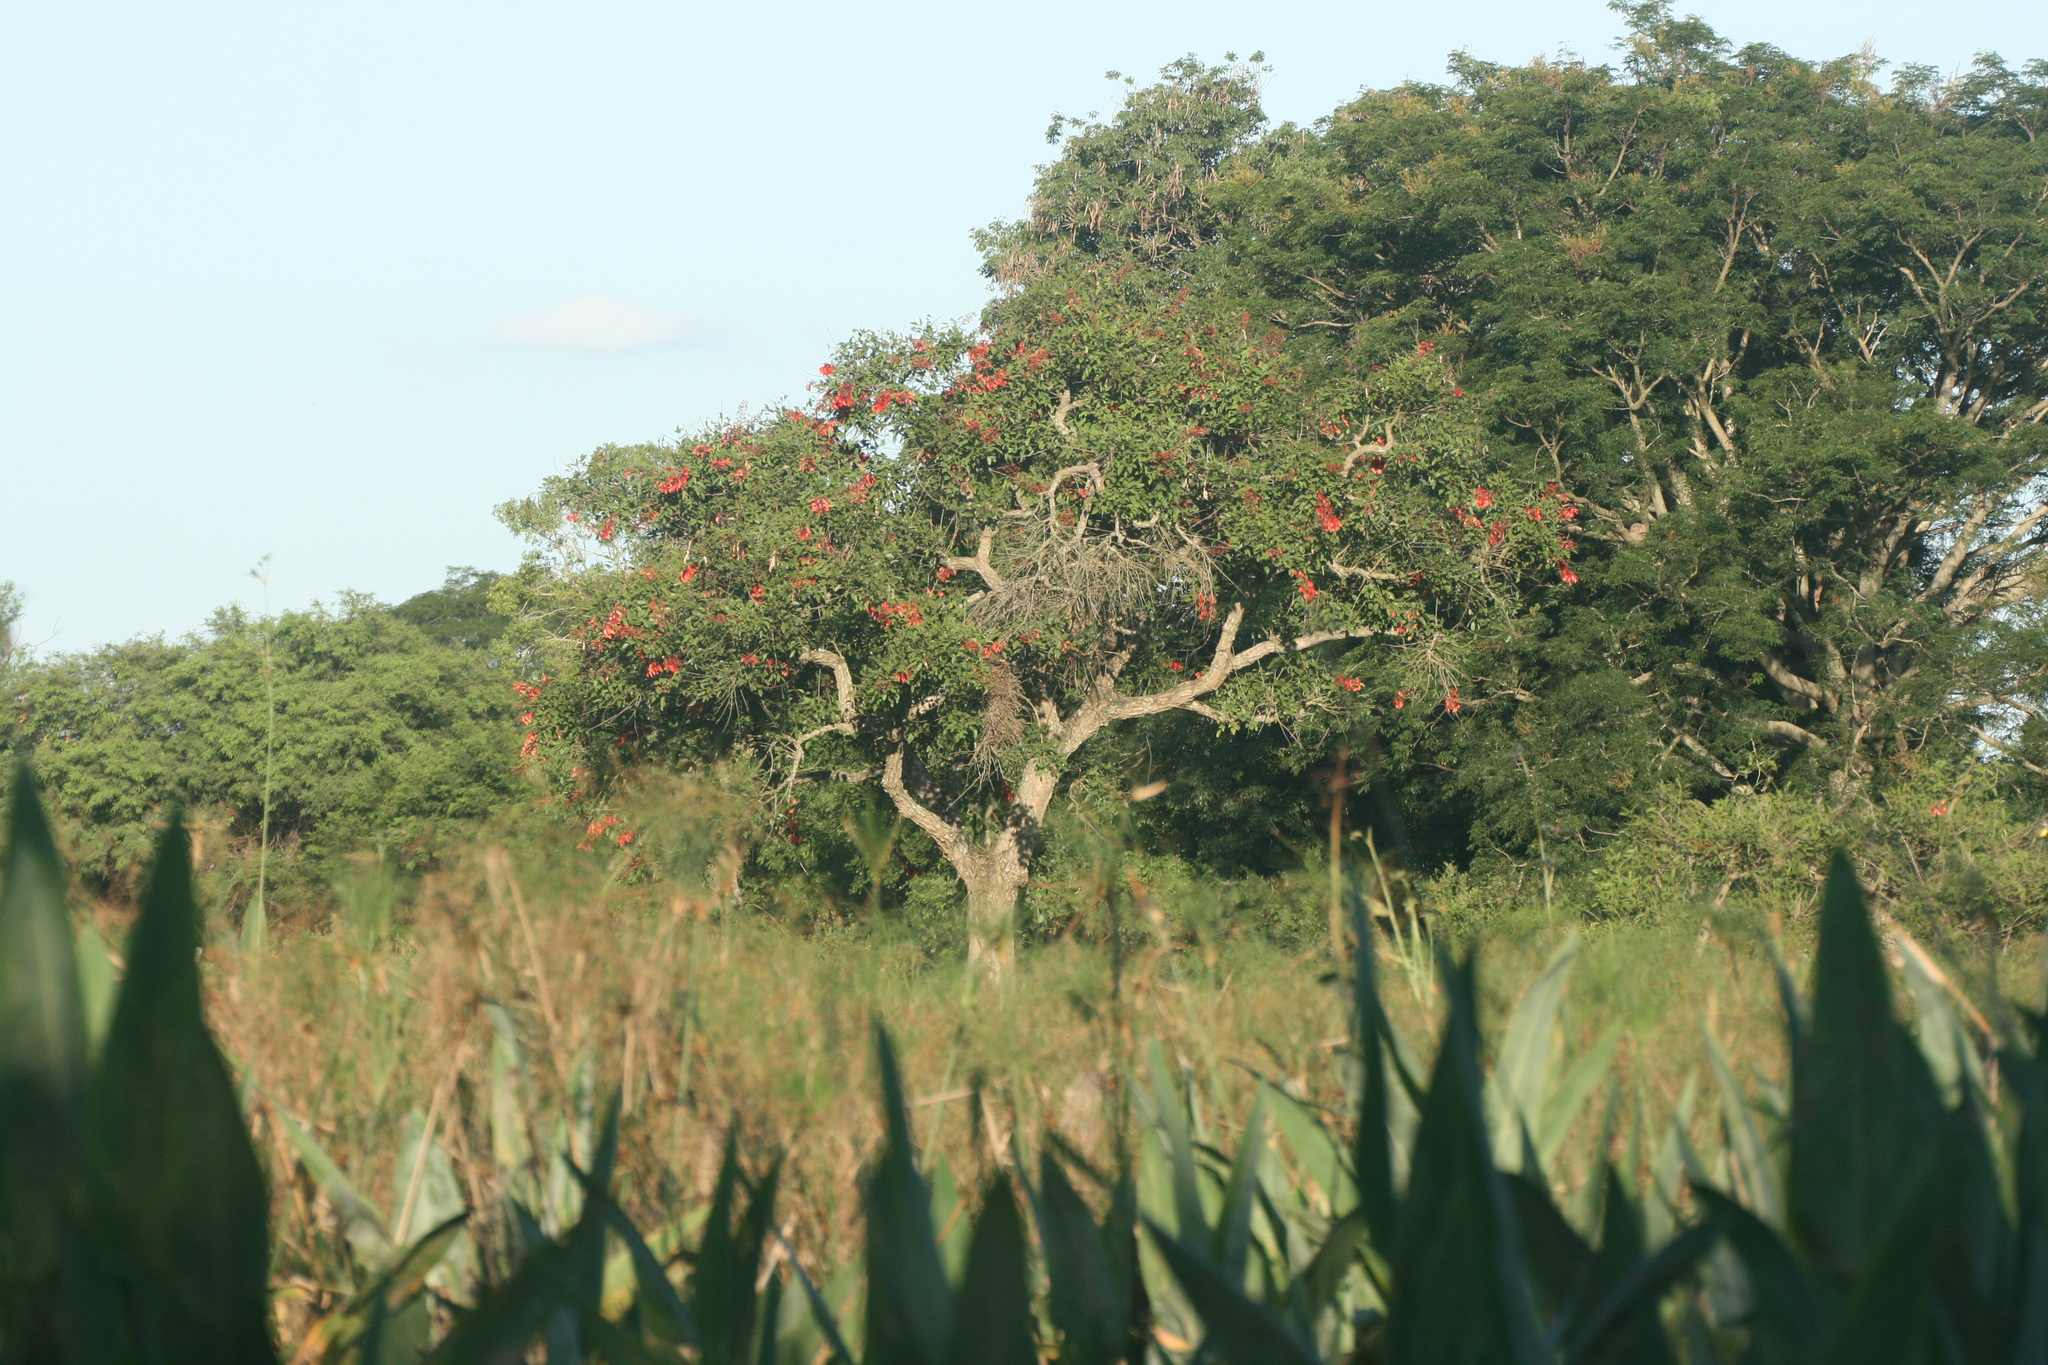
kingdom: Plantae
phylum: Tracheophyta
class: Magnoliopsida
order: Fabales
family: Fabaceae
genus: Erythrina
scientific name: Erythrina crista-galli
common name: Cockspur coral tree
